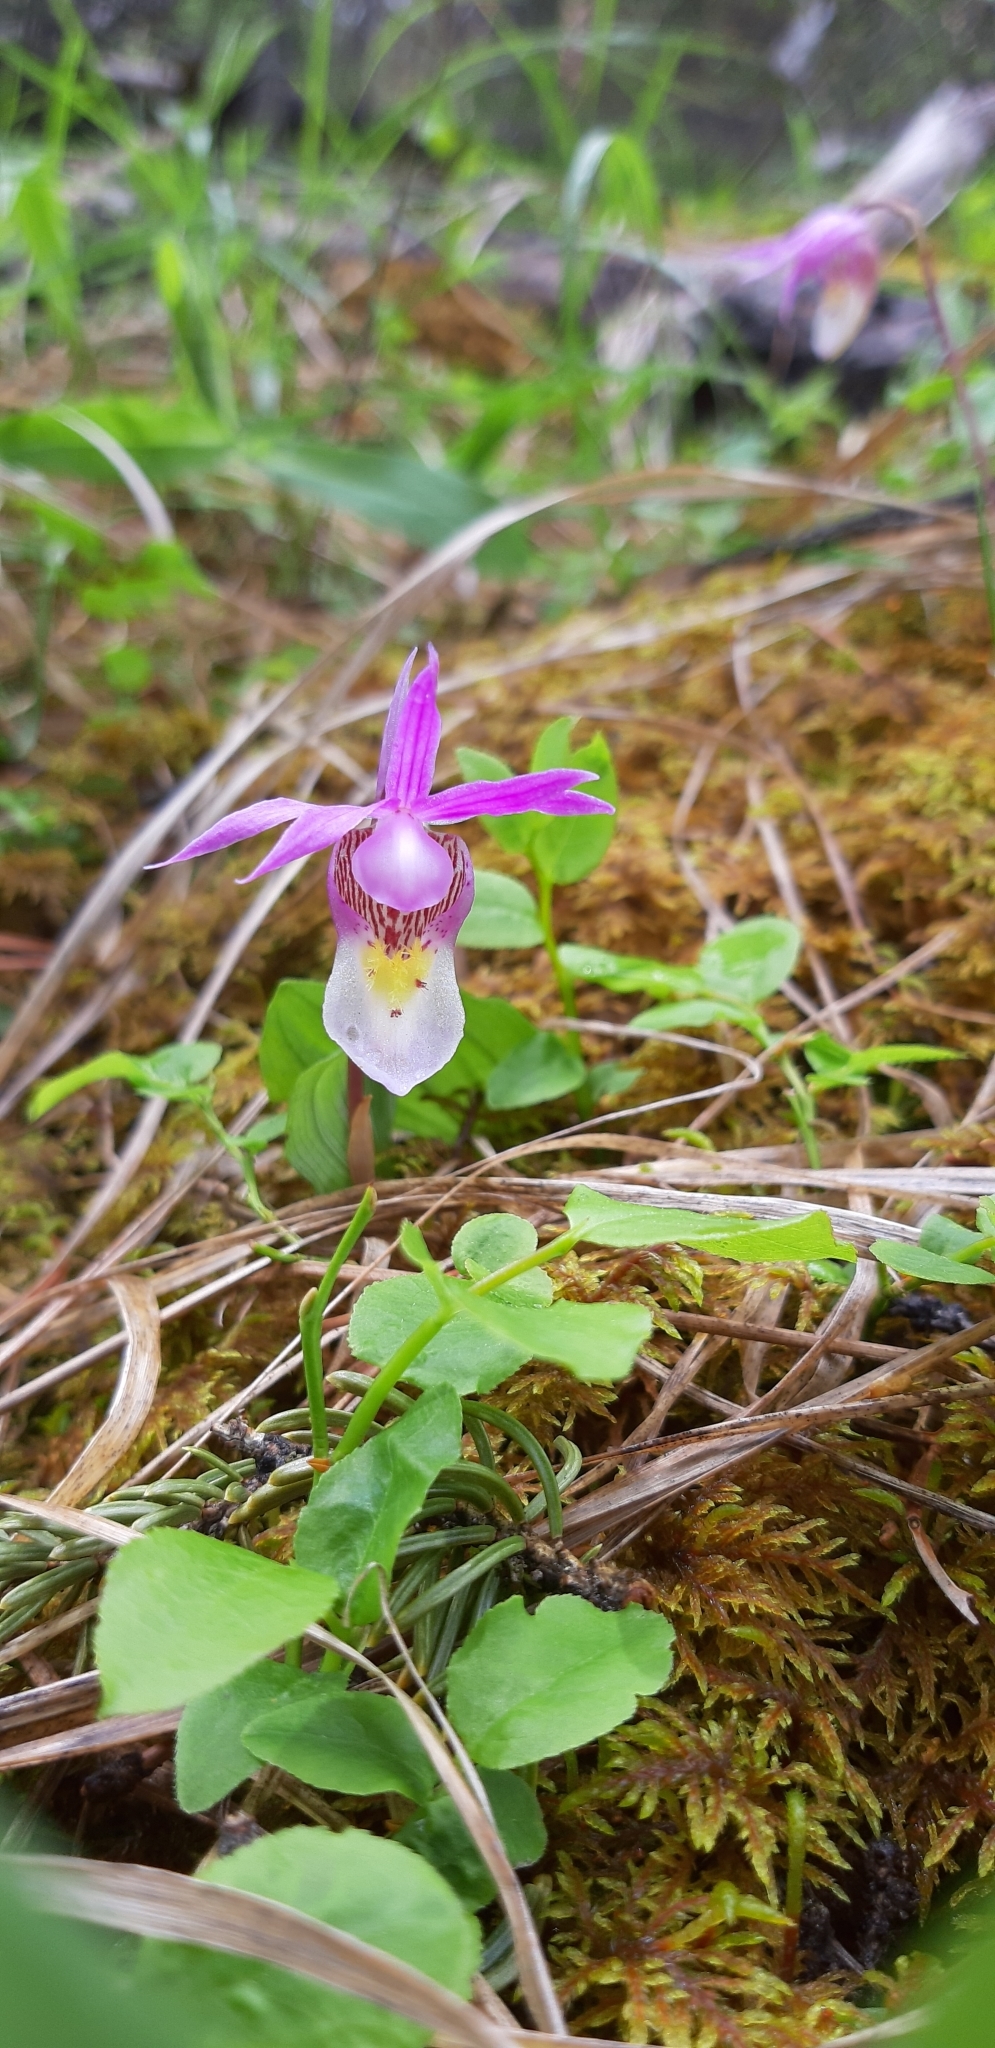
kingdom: Plantae
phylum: Tracheophyta
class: Liliopsida
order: Asparagales
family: Orchidaceae
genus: Calypso
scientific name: Calypso bulbosa
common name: Calypso
